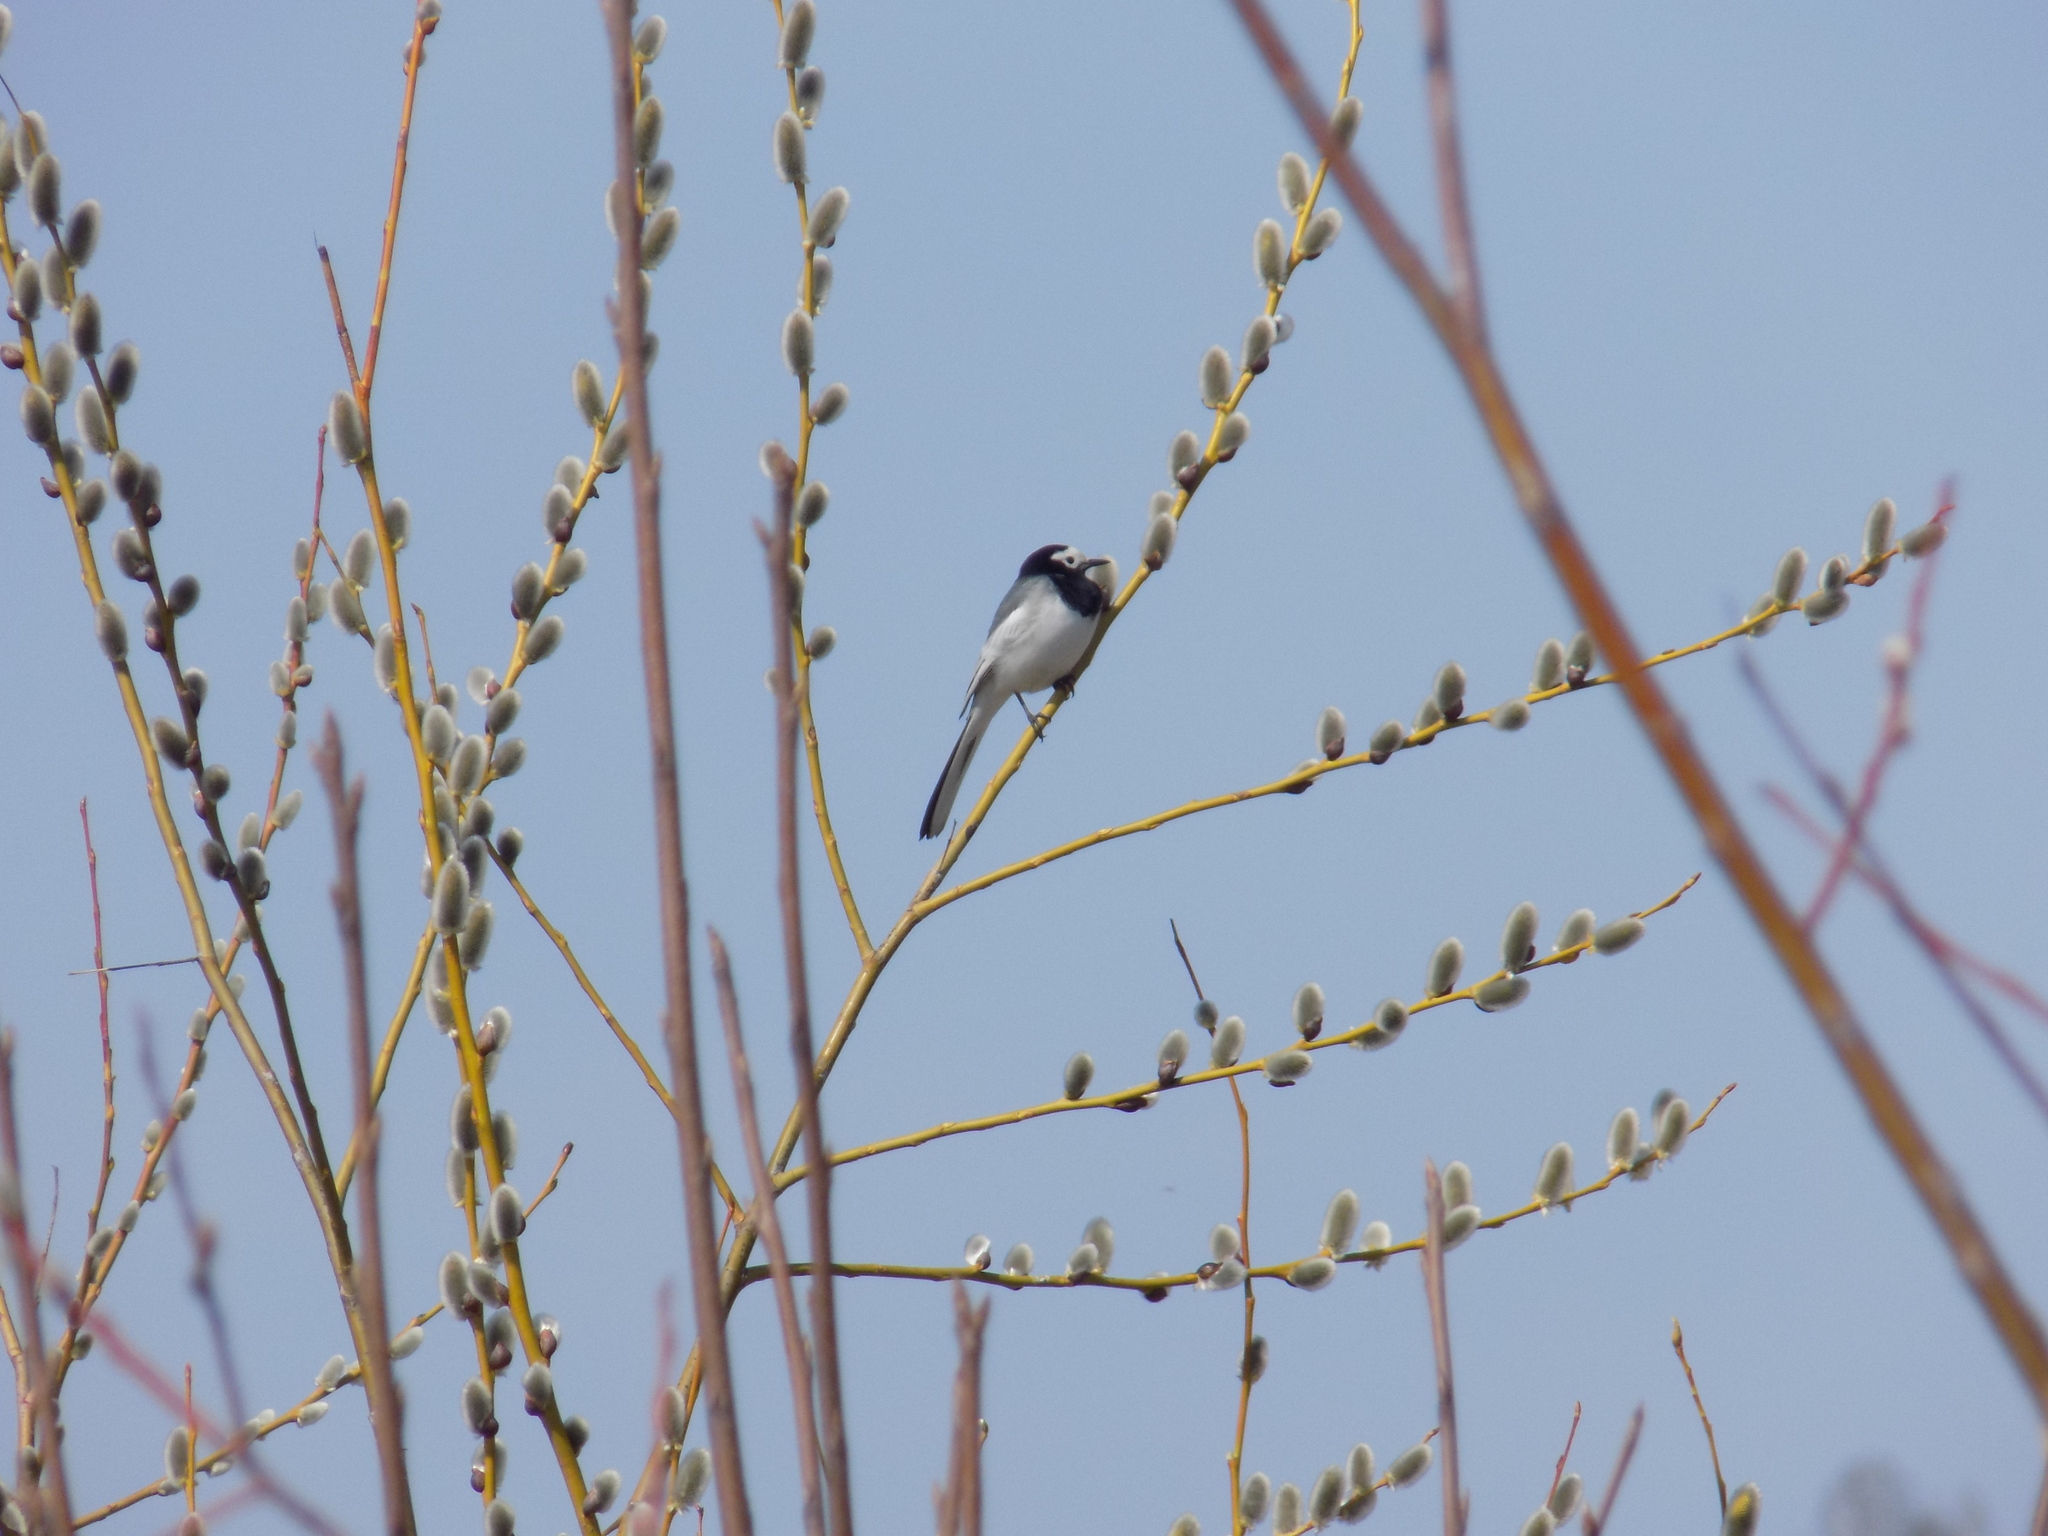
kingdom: Animalia
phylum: Chordata
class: Aves
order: Passeriformes
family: Motacillidae
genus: Motacilla
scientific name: Motacilla alba
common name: White wagtail
